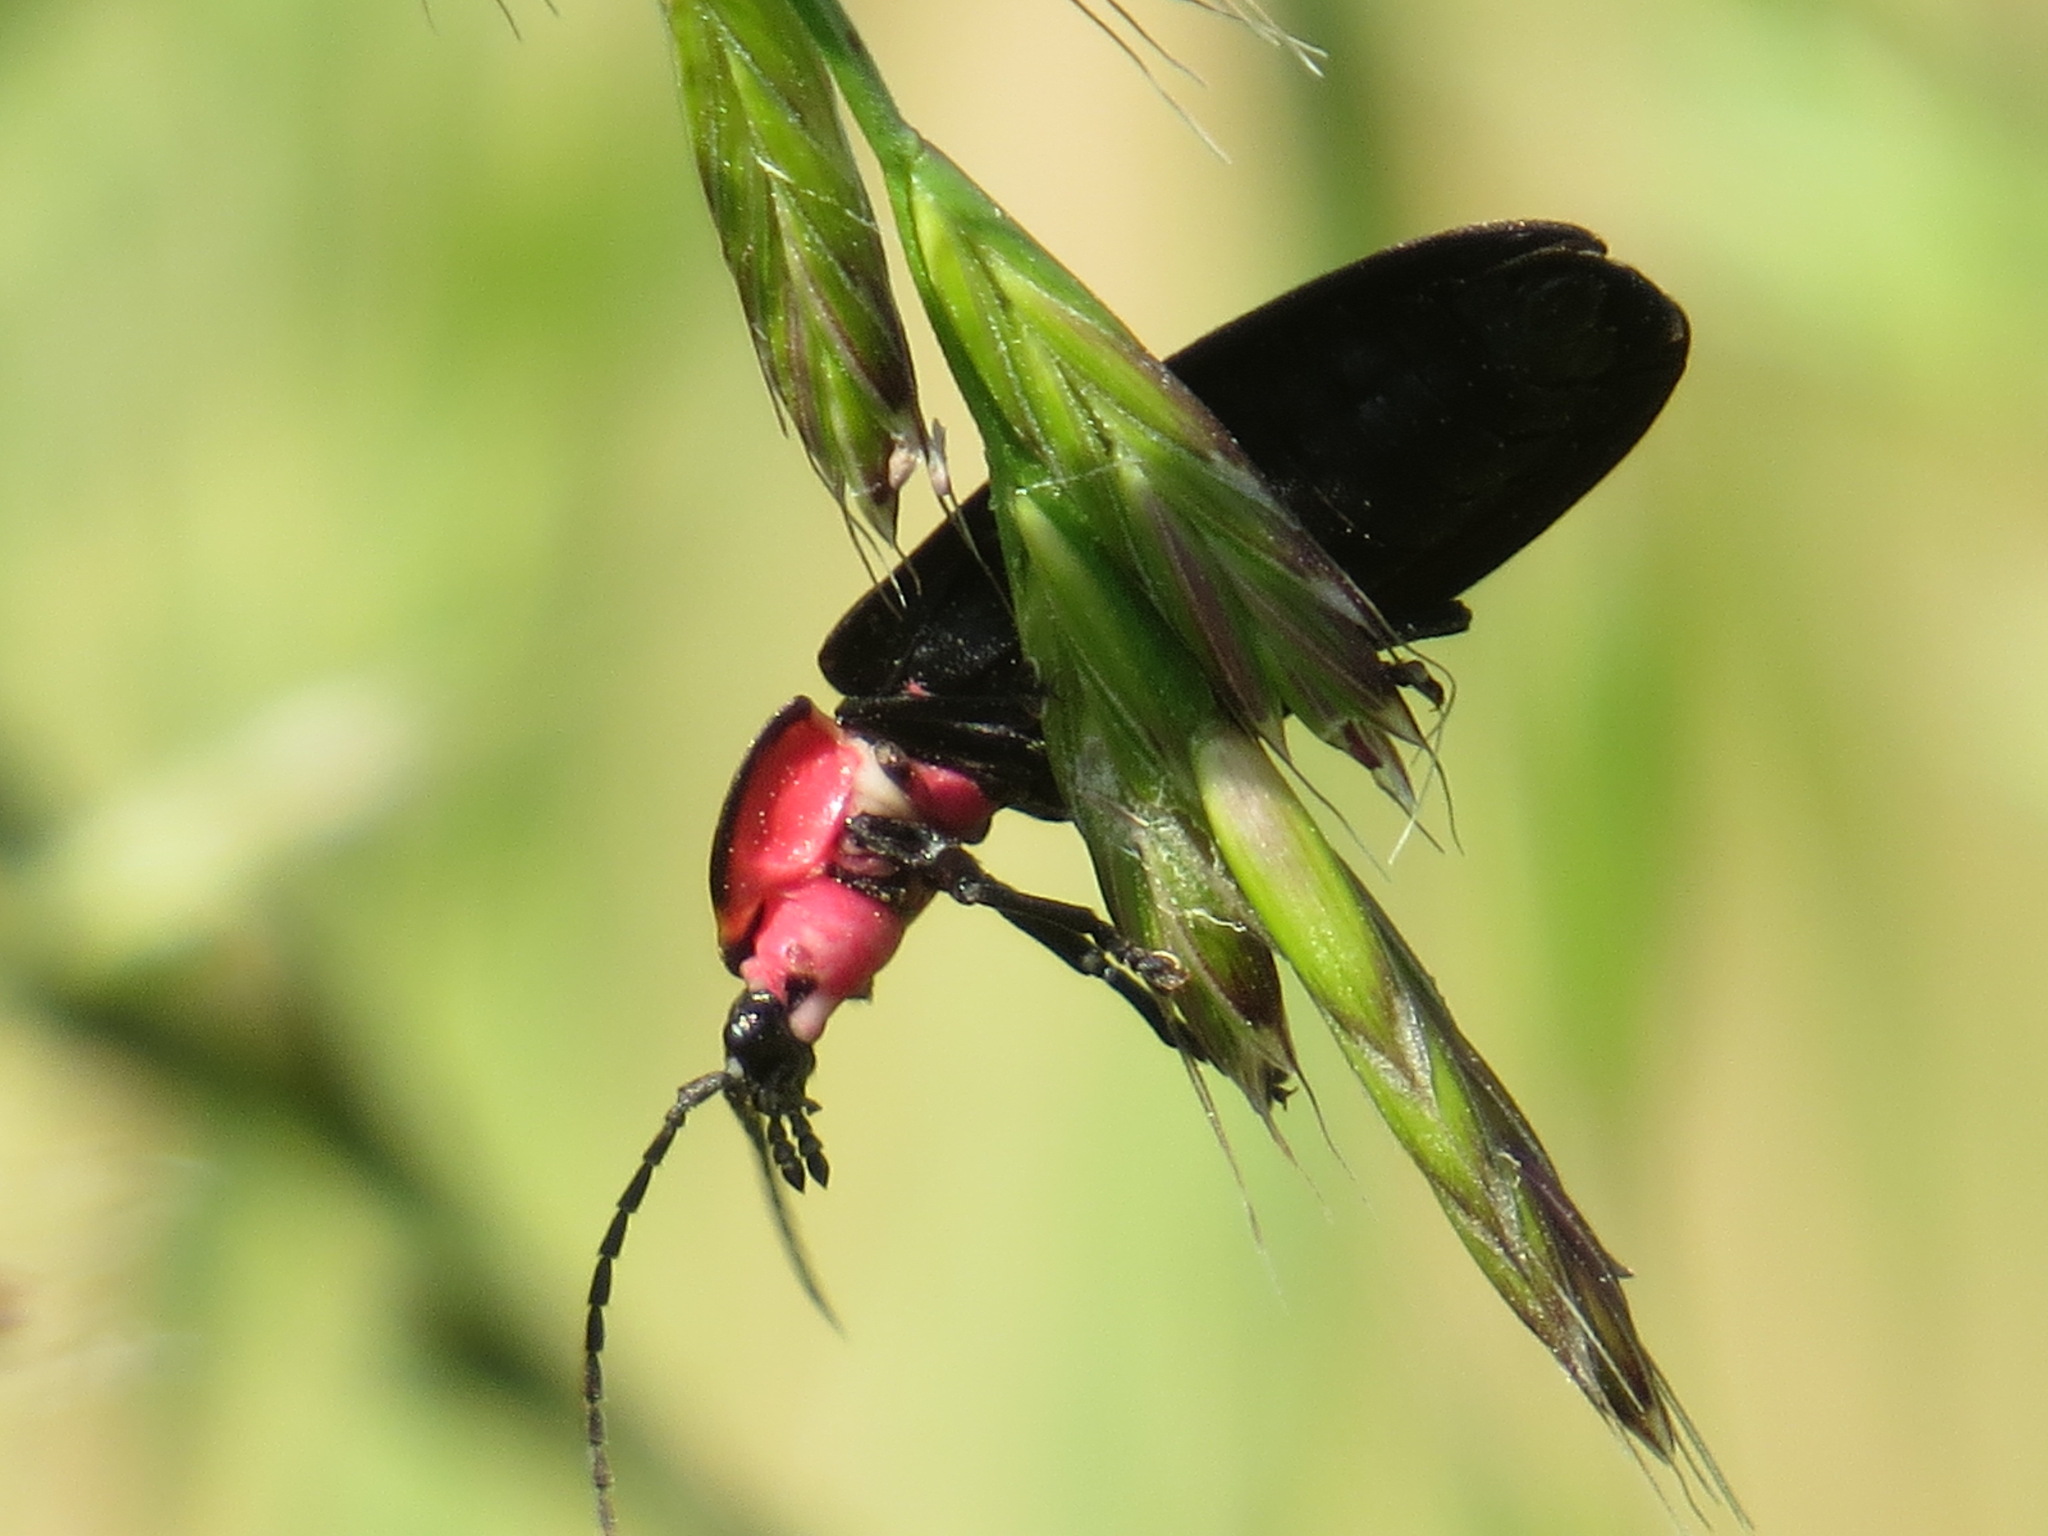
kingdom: Animalia
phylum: Arthropoda
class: Insecta
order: Coleoptera
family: Lampyridae
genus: Ellychnia
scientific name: Ellychnia megista
